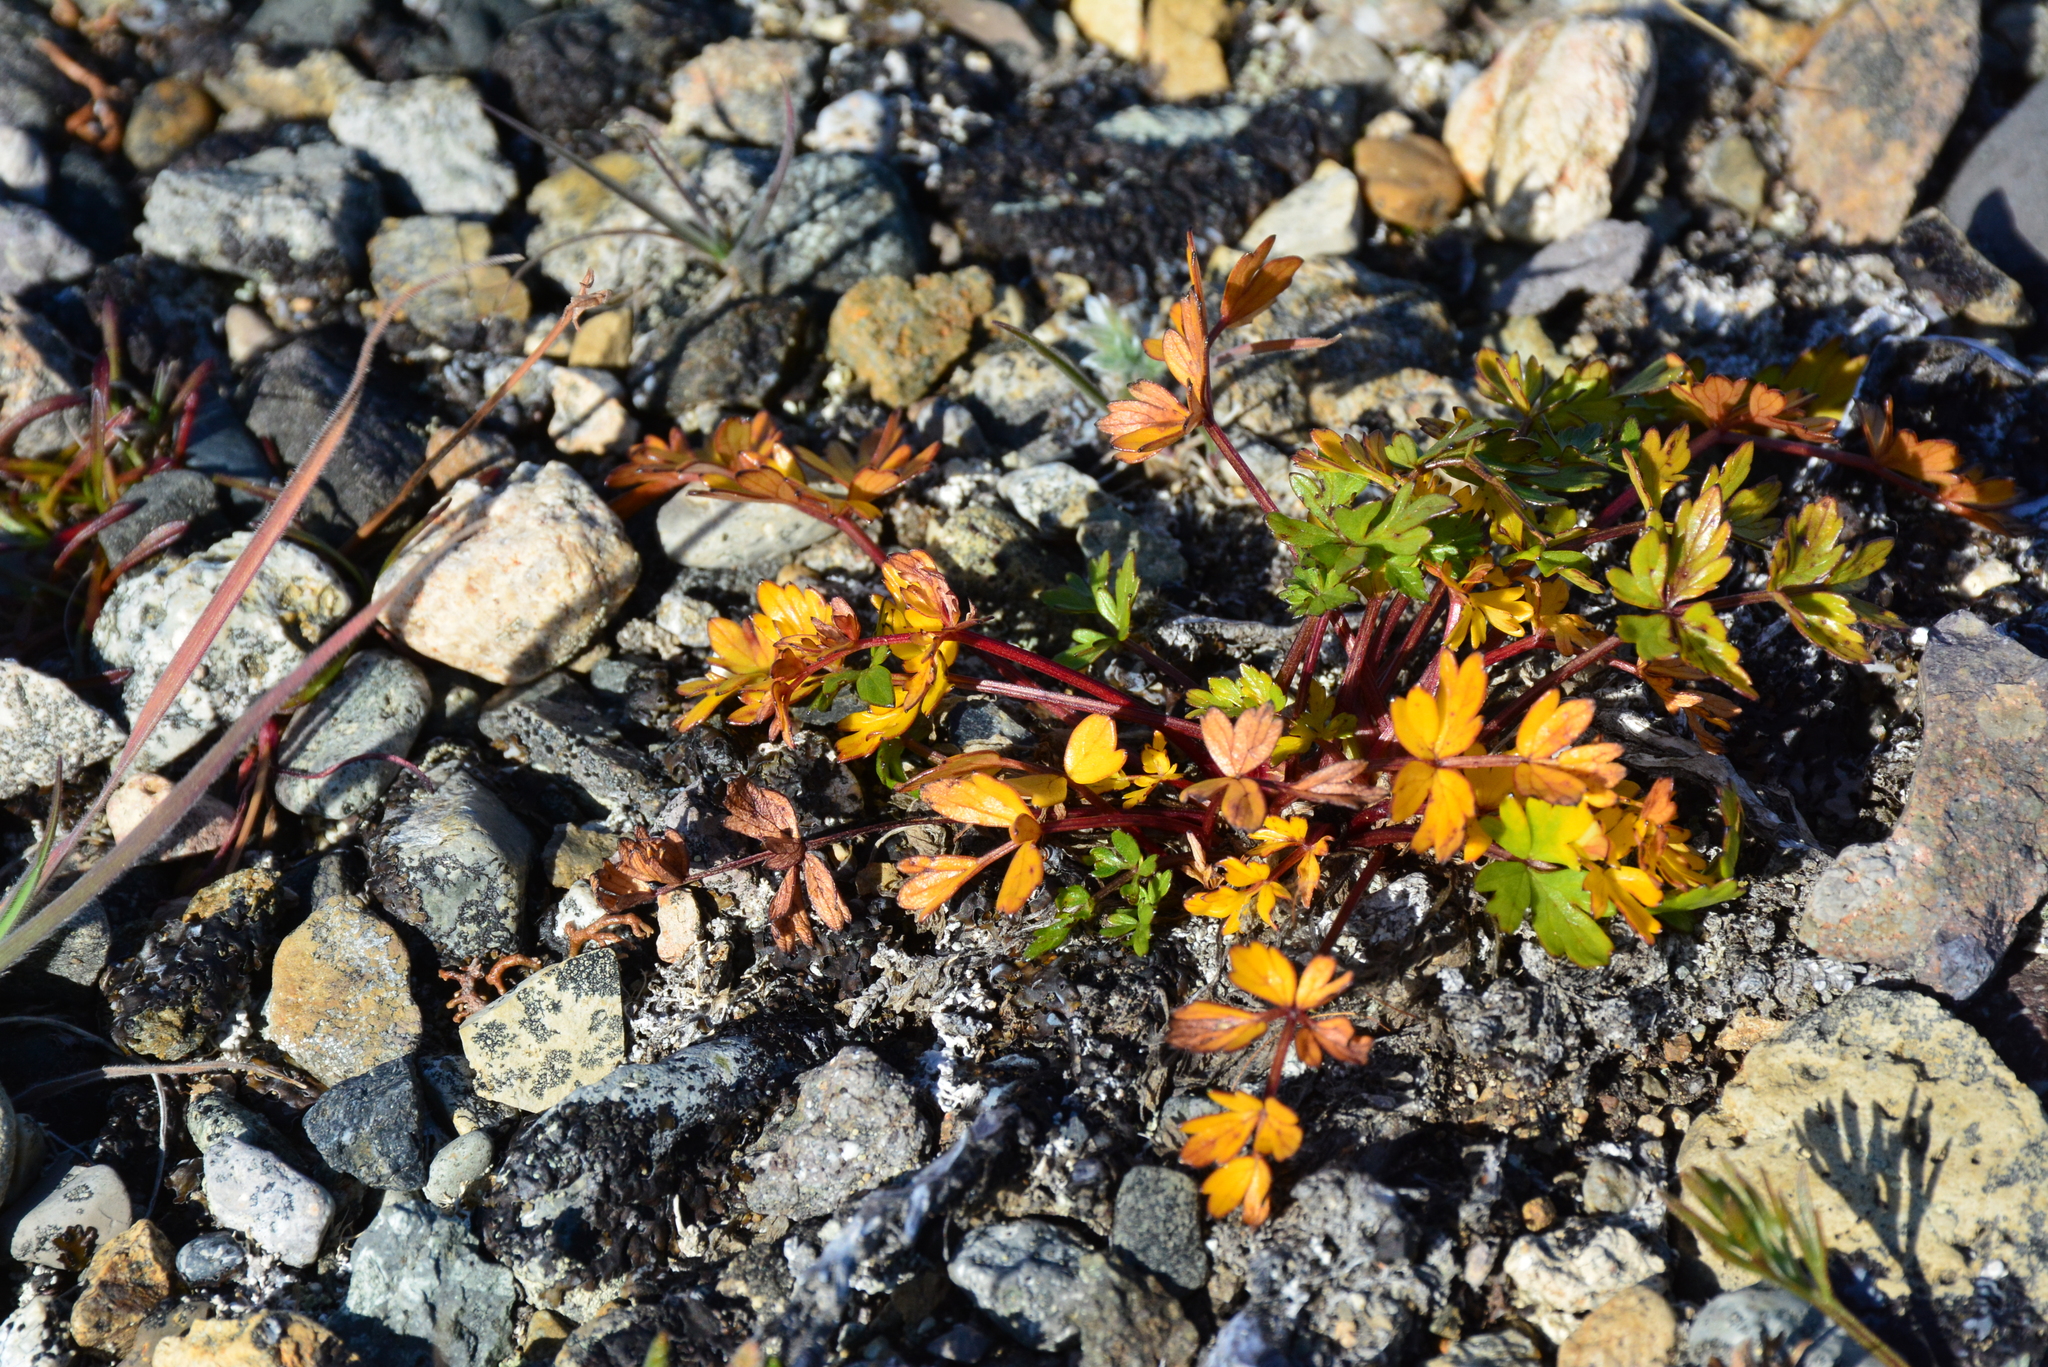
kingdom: Plantae
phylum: Tracheophyta
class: Magnoliopsida
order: Apiales
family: Apiaceae
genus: Orumbella
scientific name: Orumbella macounii
